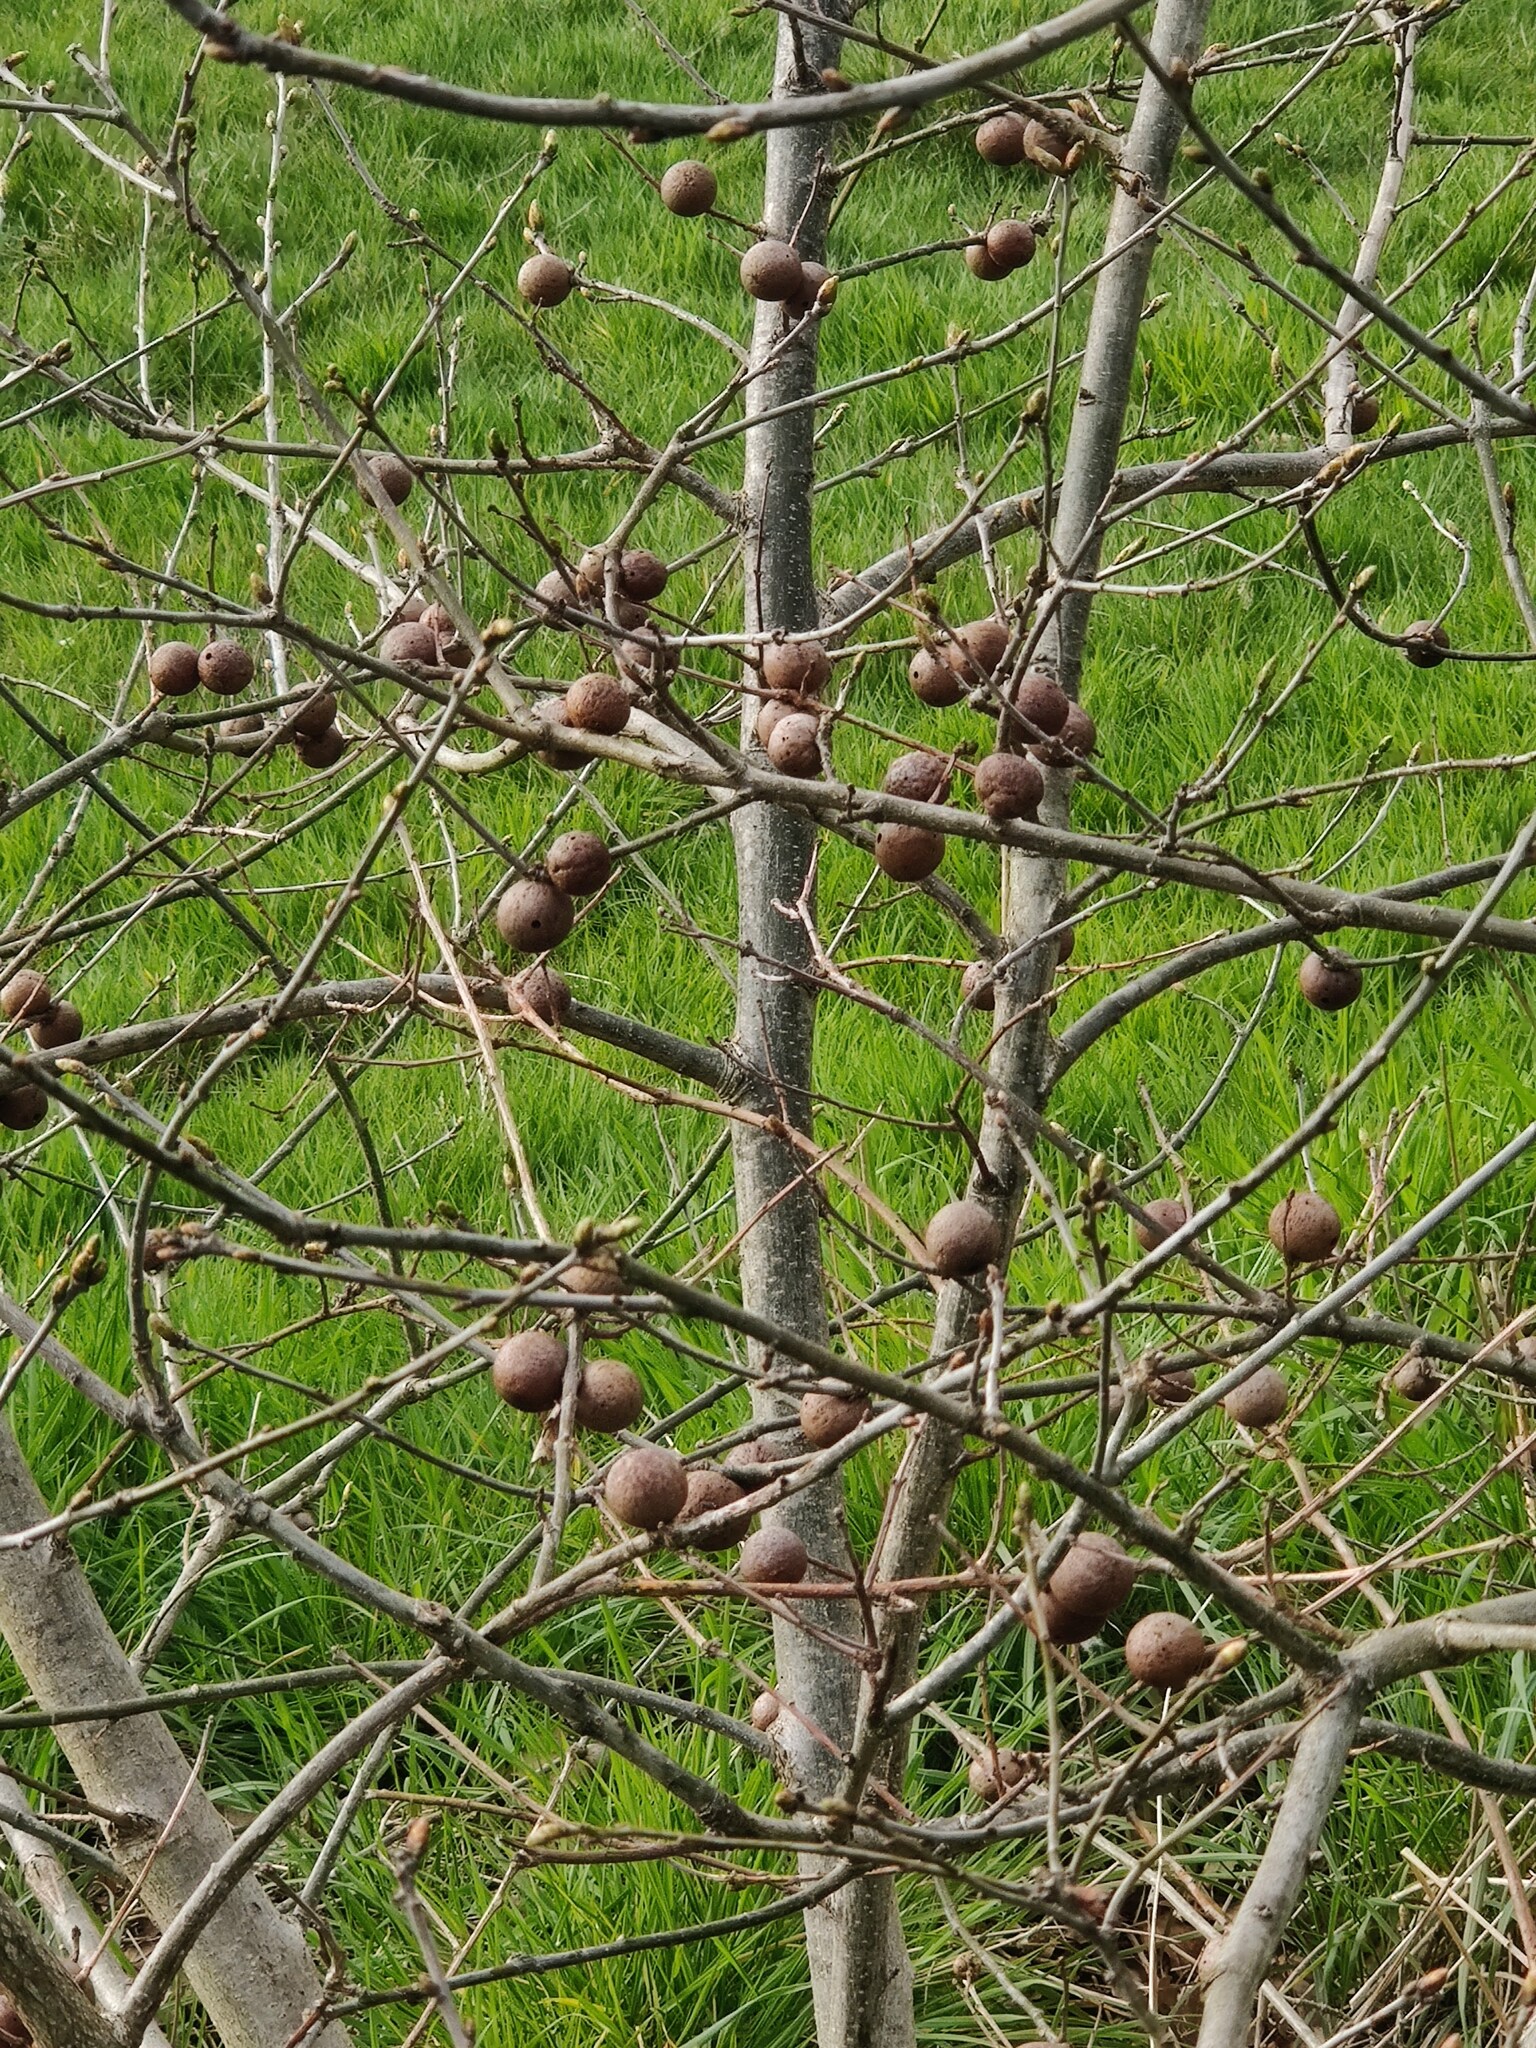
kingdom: Animalia
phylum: Arthropoda
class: Insecta
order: Hymenoptera
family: Cynipidae
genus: Andricus
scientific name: Andricus kollari
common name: Marble gall
